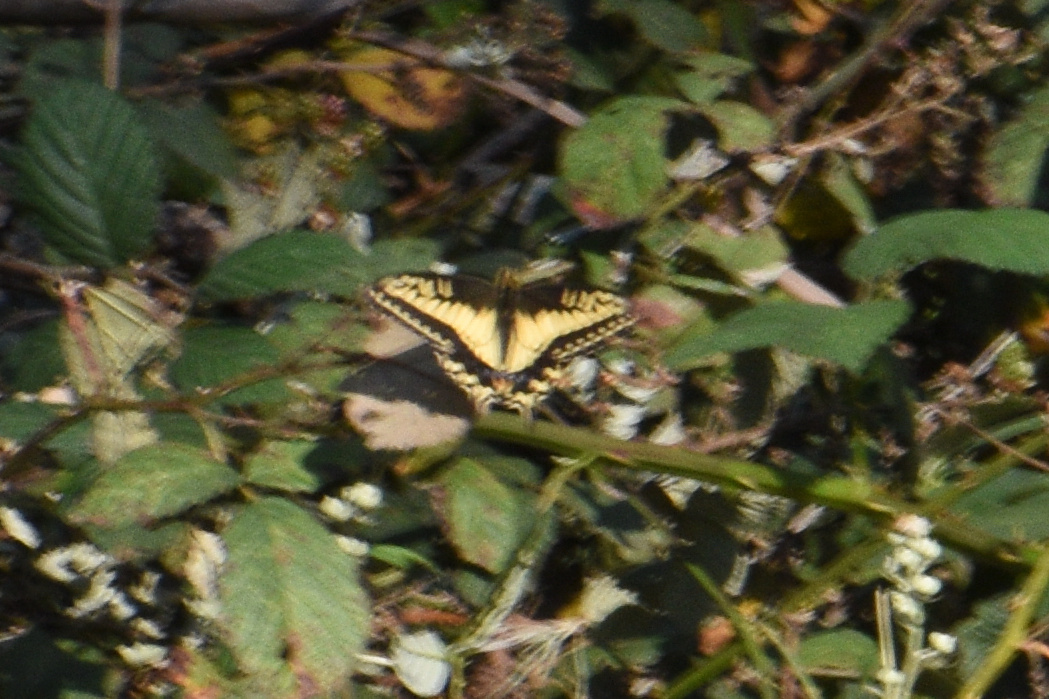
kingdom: Animalia
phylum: Arthropoda
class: Insecta
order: Lepidoptera
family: Papilionidae
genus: Papilio
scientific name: Papilio zelicaon
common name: Anise swallowtail
